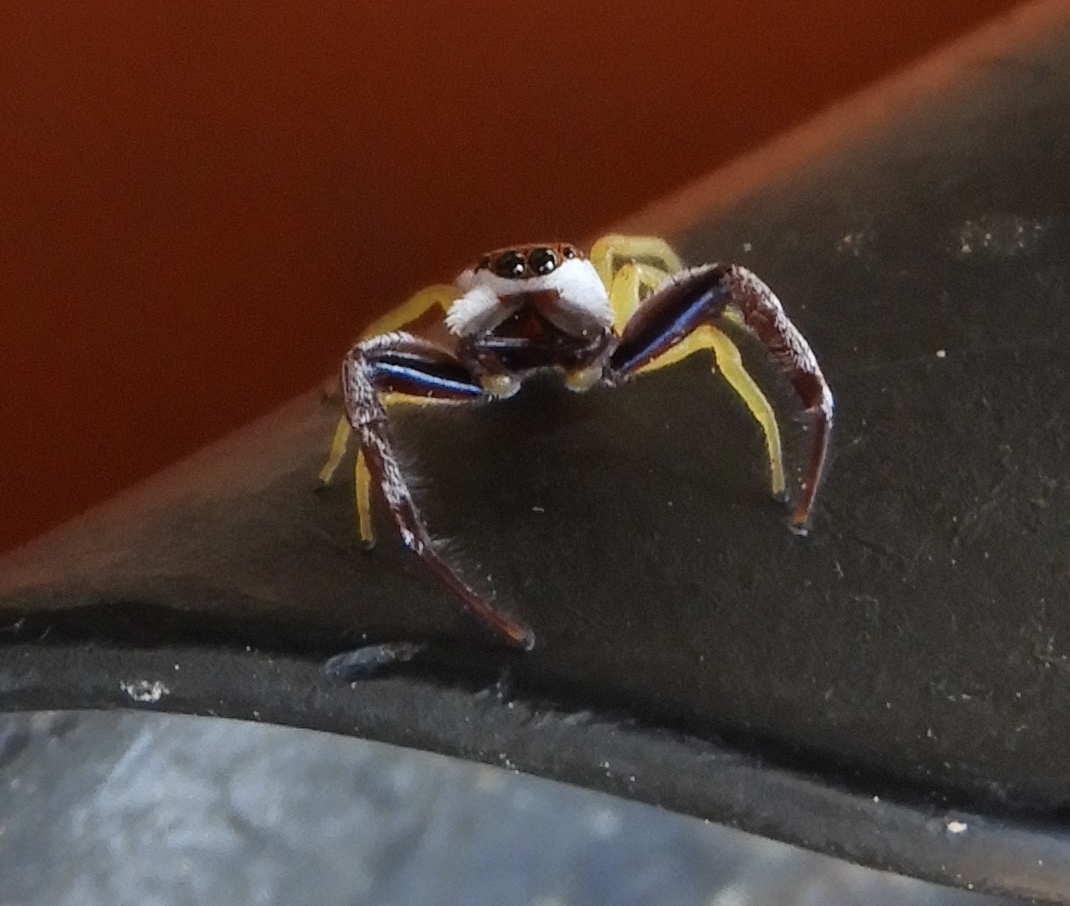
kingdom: Animalia
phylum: Arthropoda
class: Arachnida
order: Araneae
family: Salticidae
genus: Hentzia
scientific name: Hentzia palmarum
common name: Common hentz jumping spider
